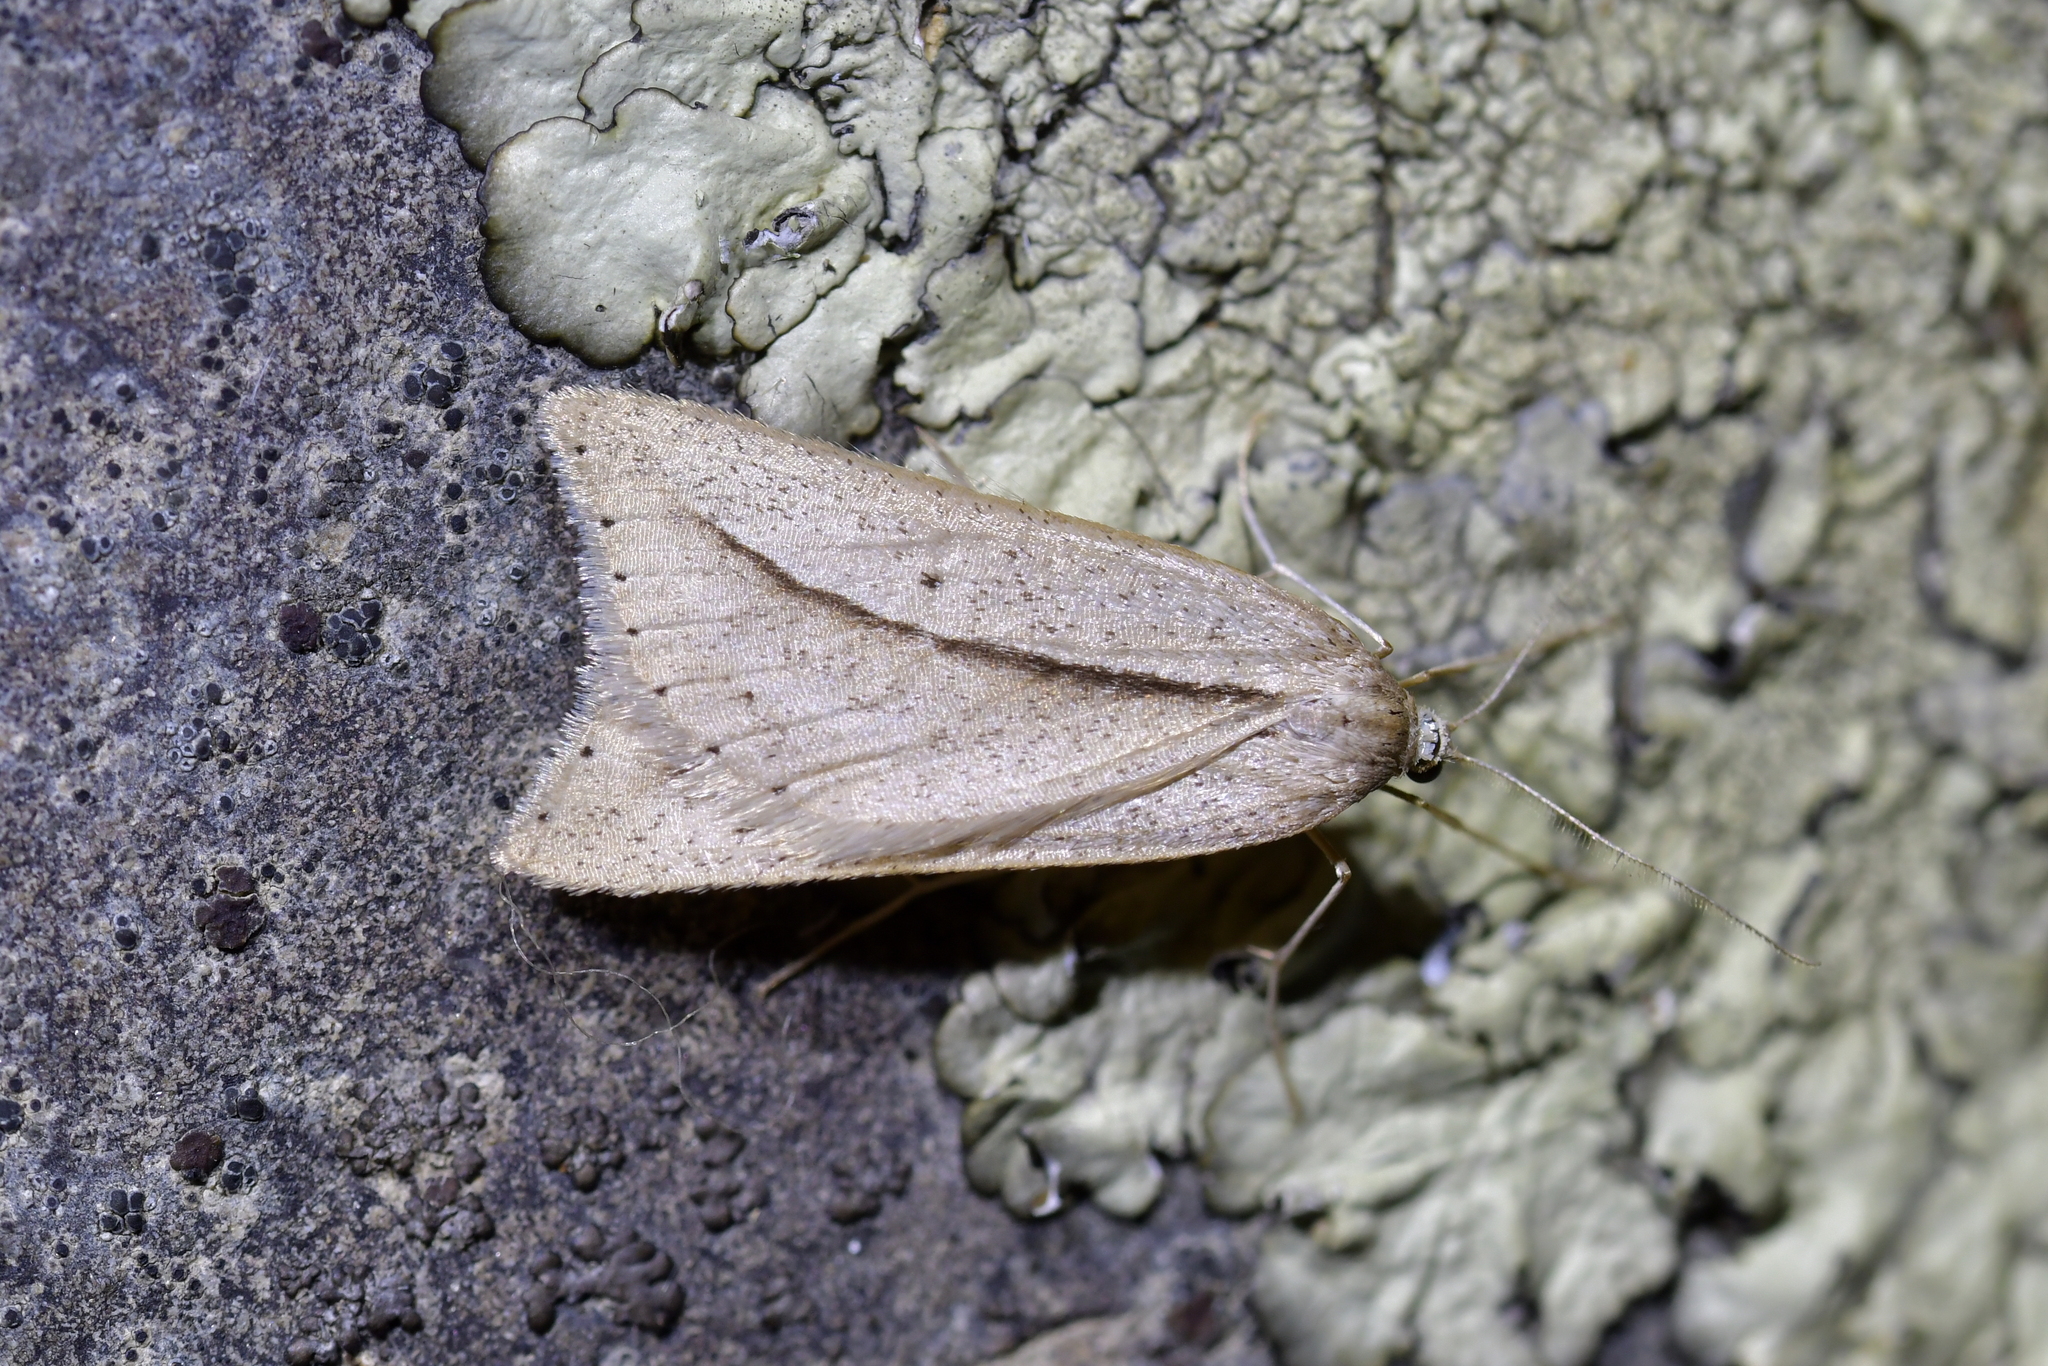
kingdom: Animalia
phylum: Arthropoda
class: Insecta
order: Lepidoptera
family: Geometridae
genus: Theoxena
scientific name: Theoxena scissaria
